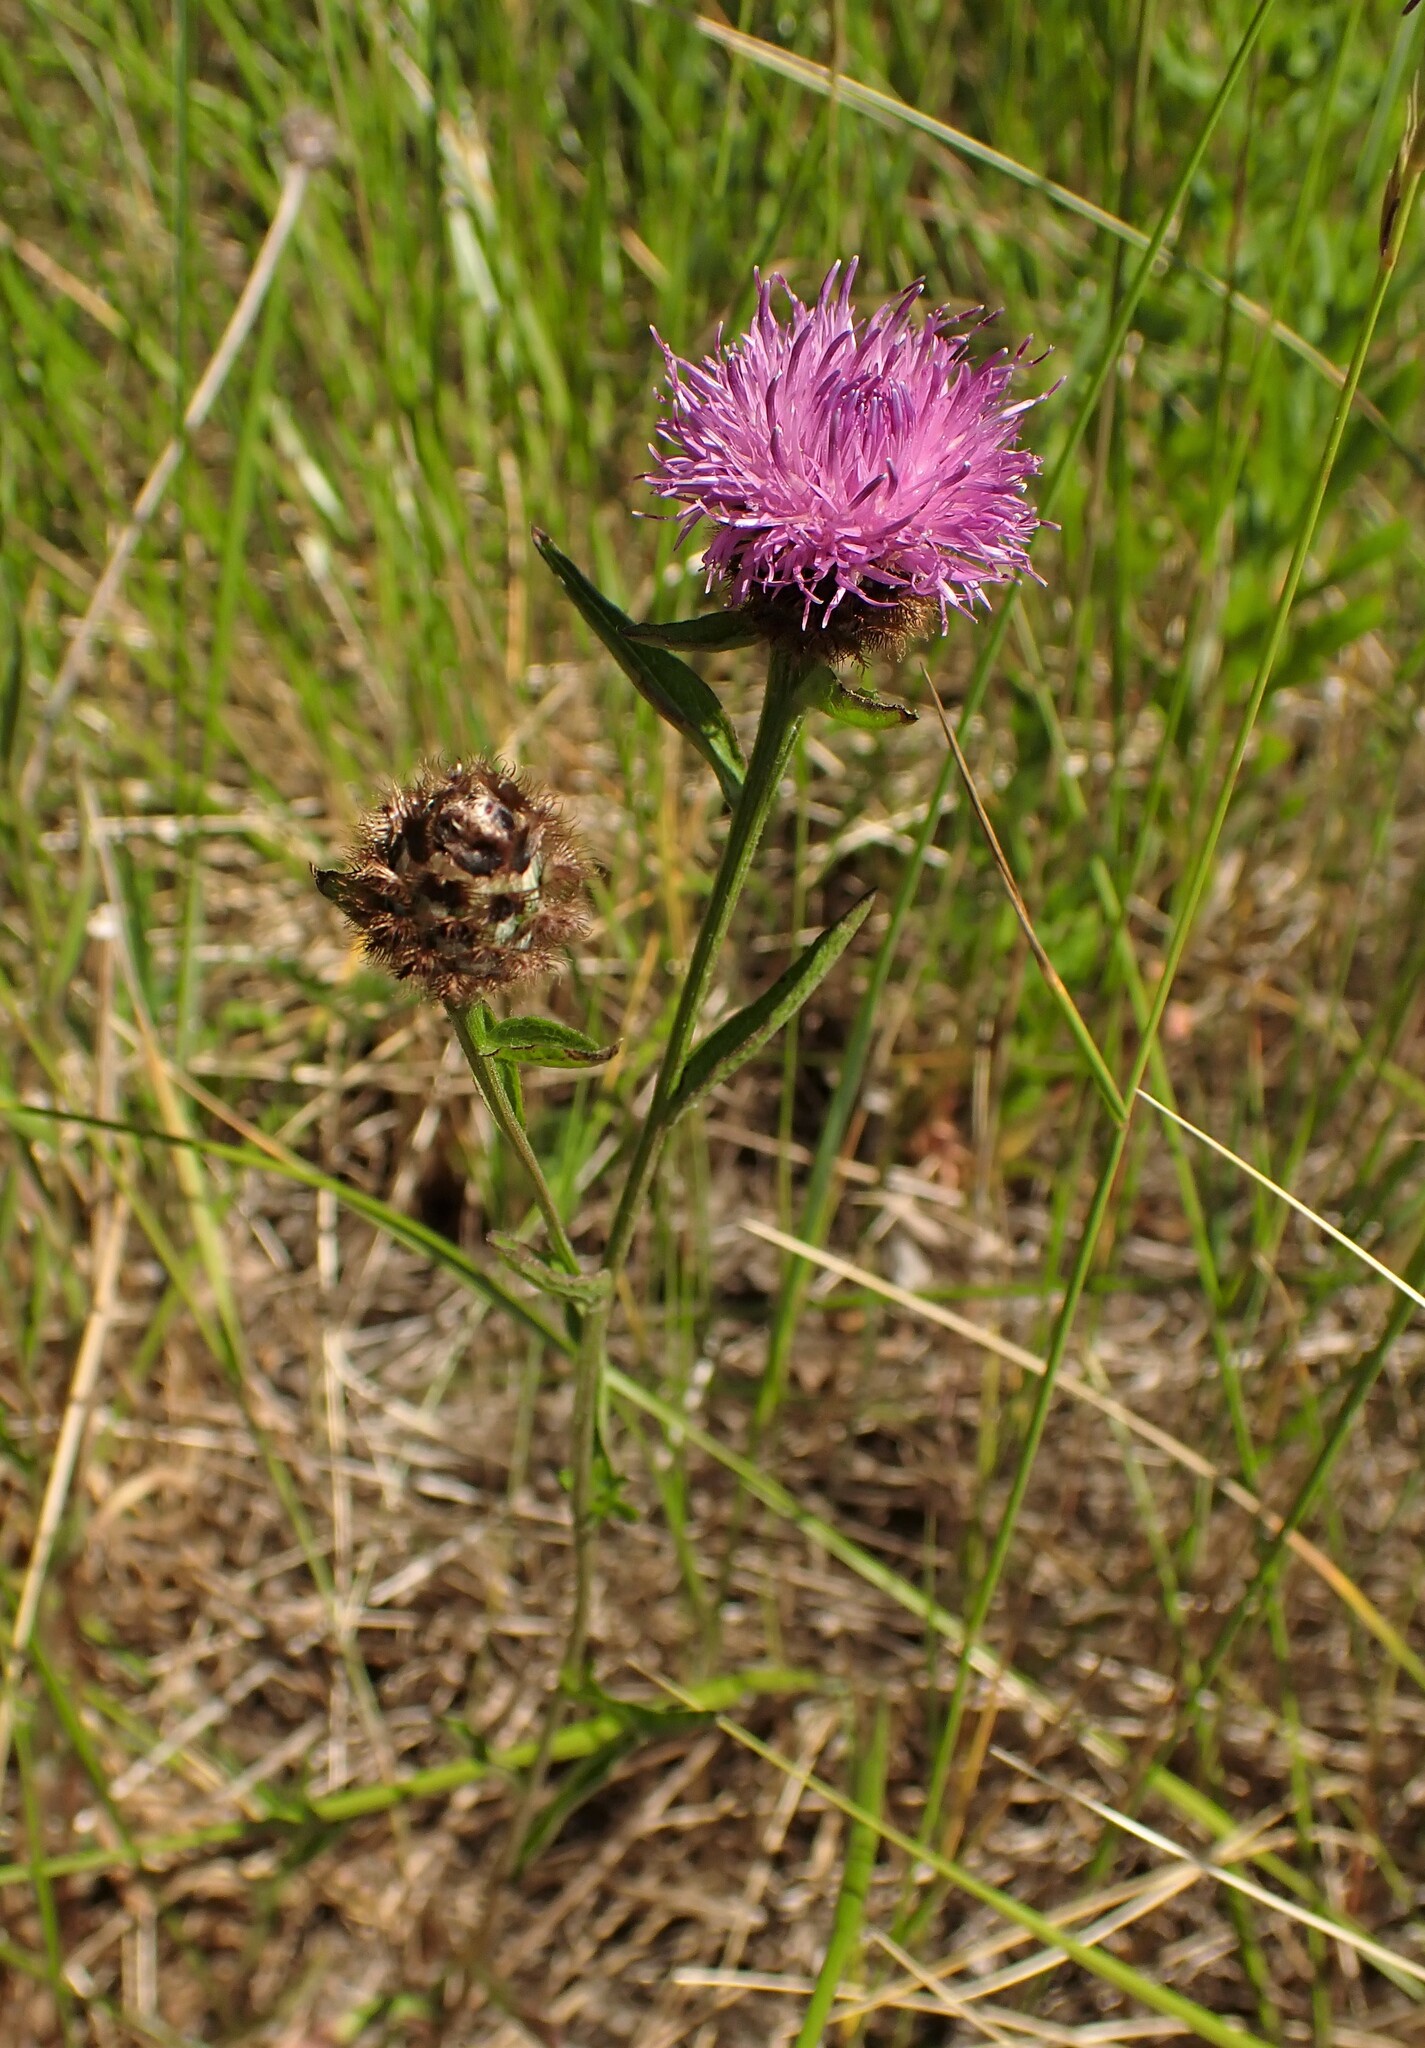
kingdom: Plantae
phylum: Tracheophyta
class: Magnoliopsida
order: Asterales
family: Asteraceae
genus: Centaurea
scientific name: Centaurea nigra
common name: Lesser knapweed
